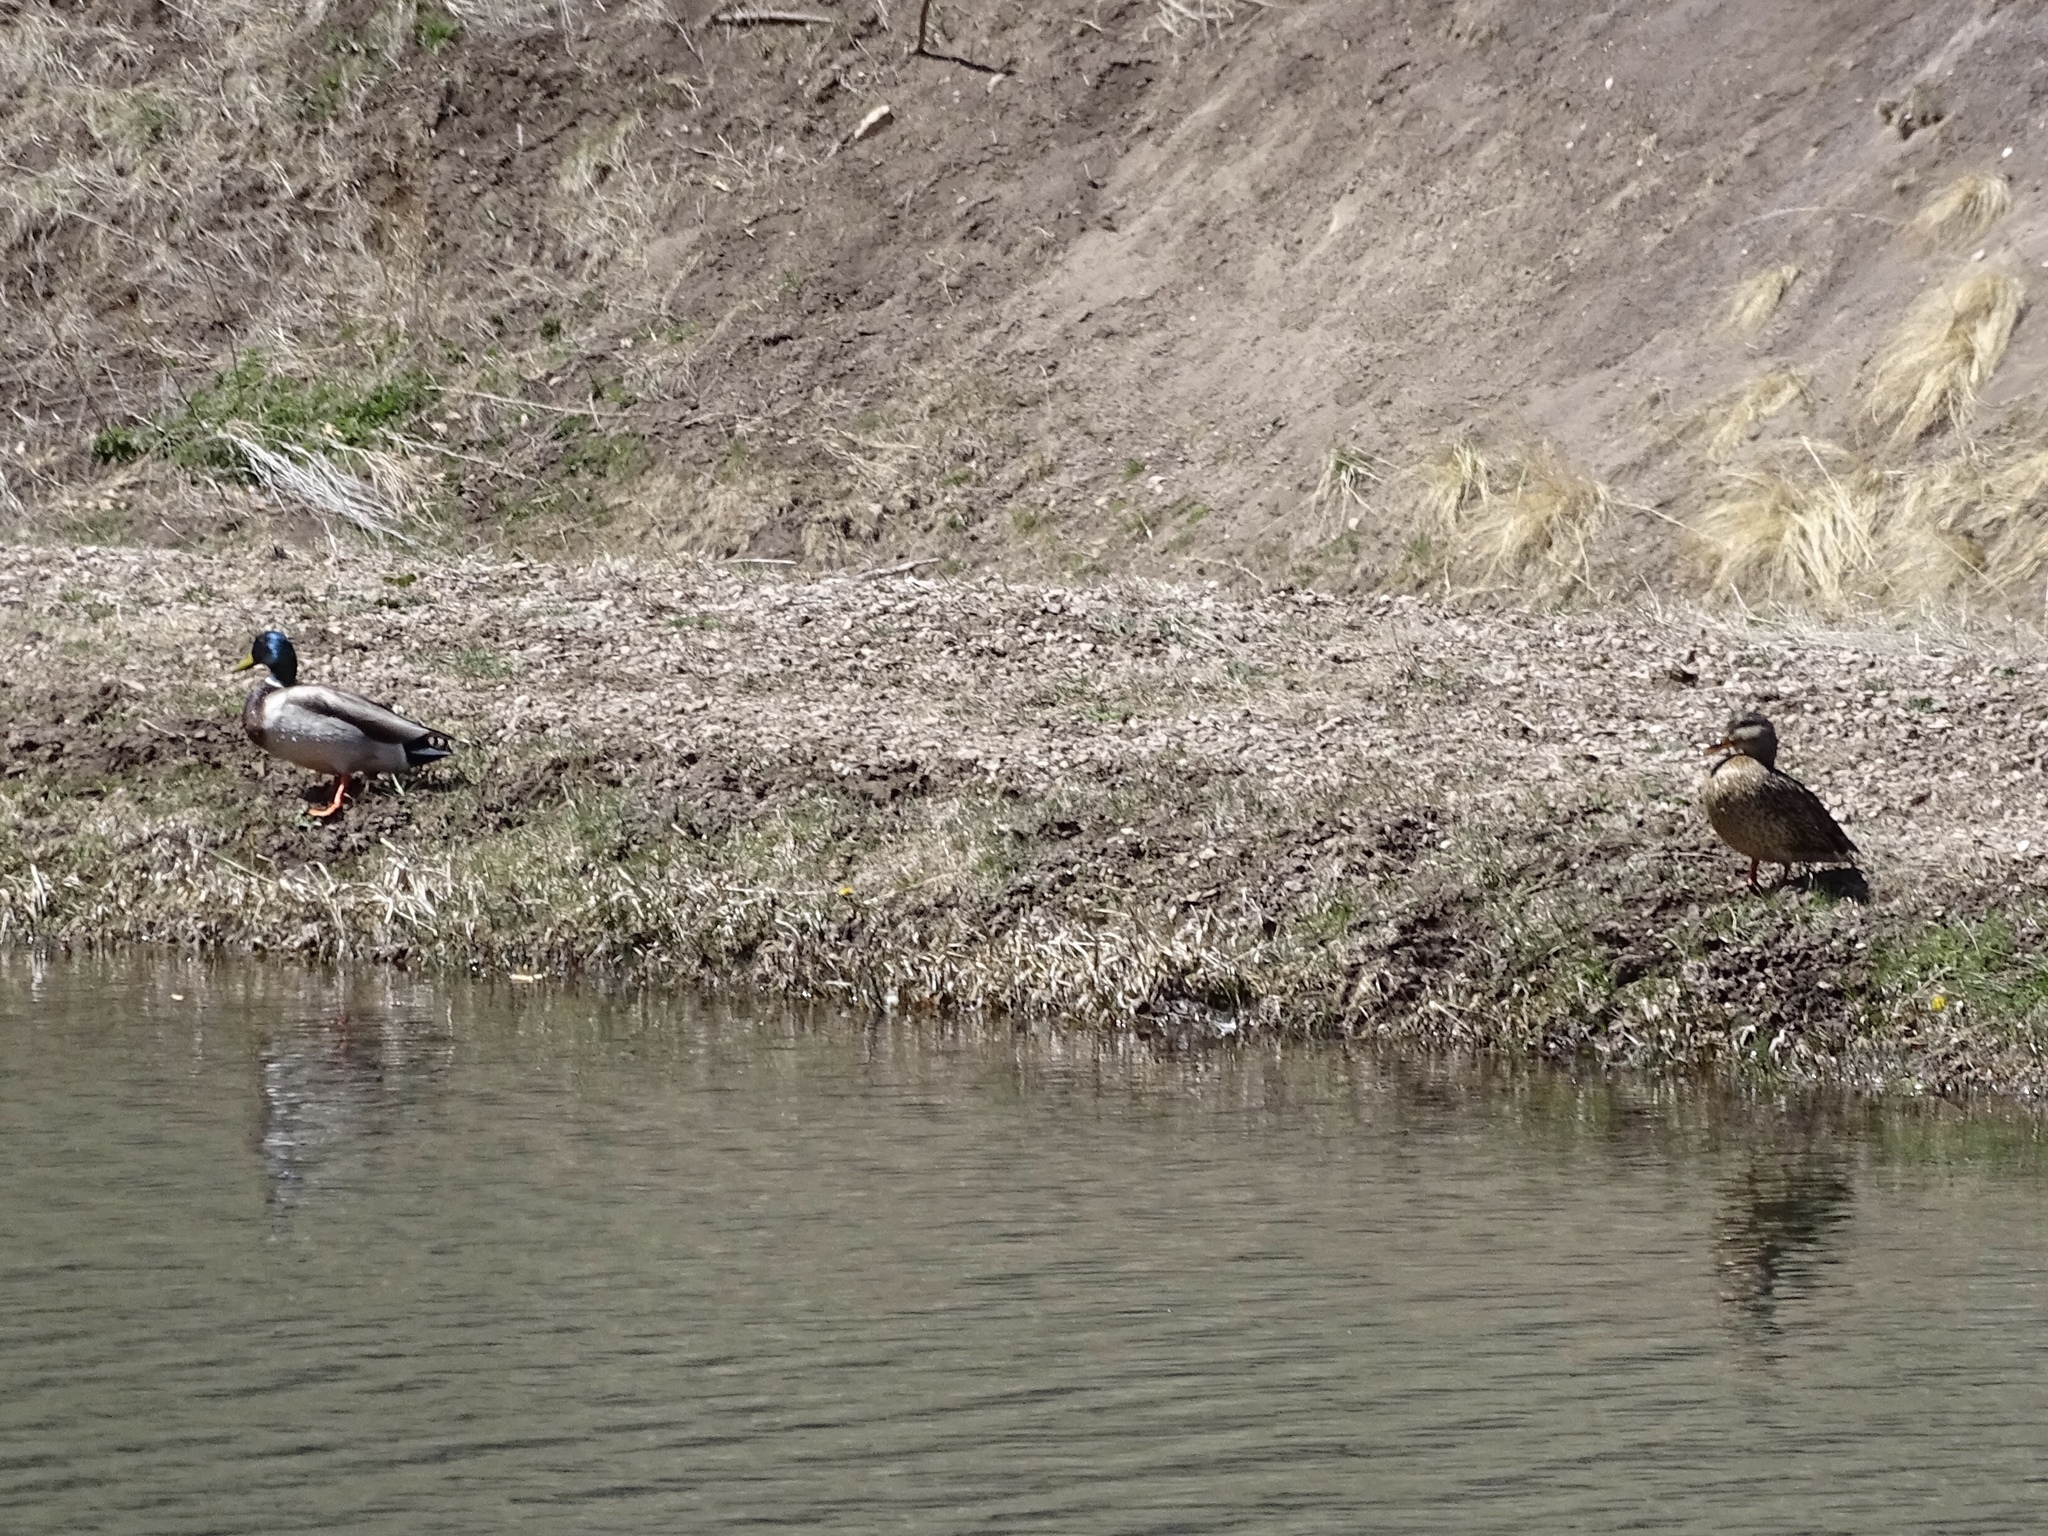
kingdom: Animalia
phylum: Chordata
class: Aves
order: Anseriformes
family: Anatidae
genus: Anas
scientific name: Anas platyrhynchos
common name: Mallard
